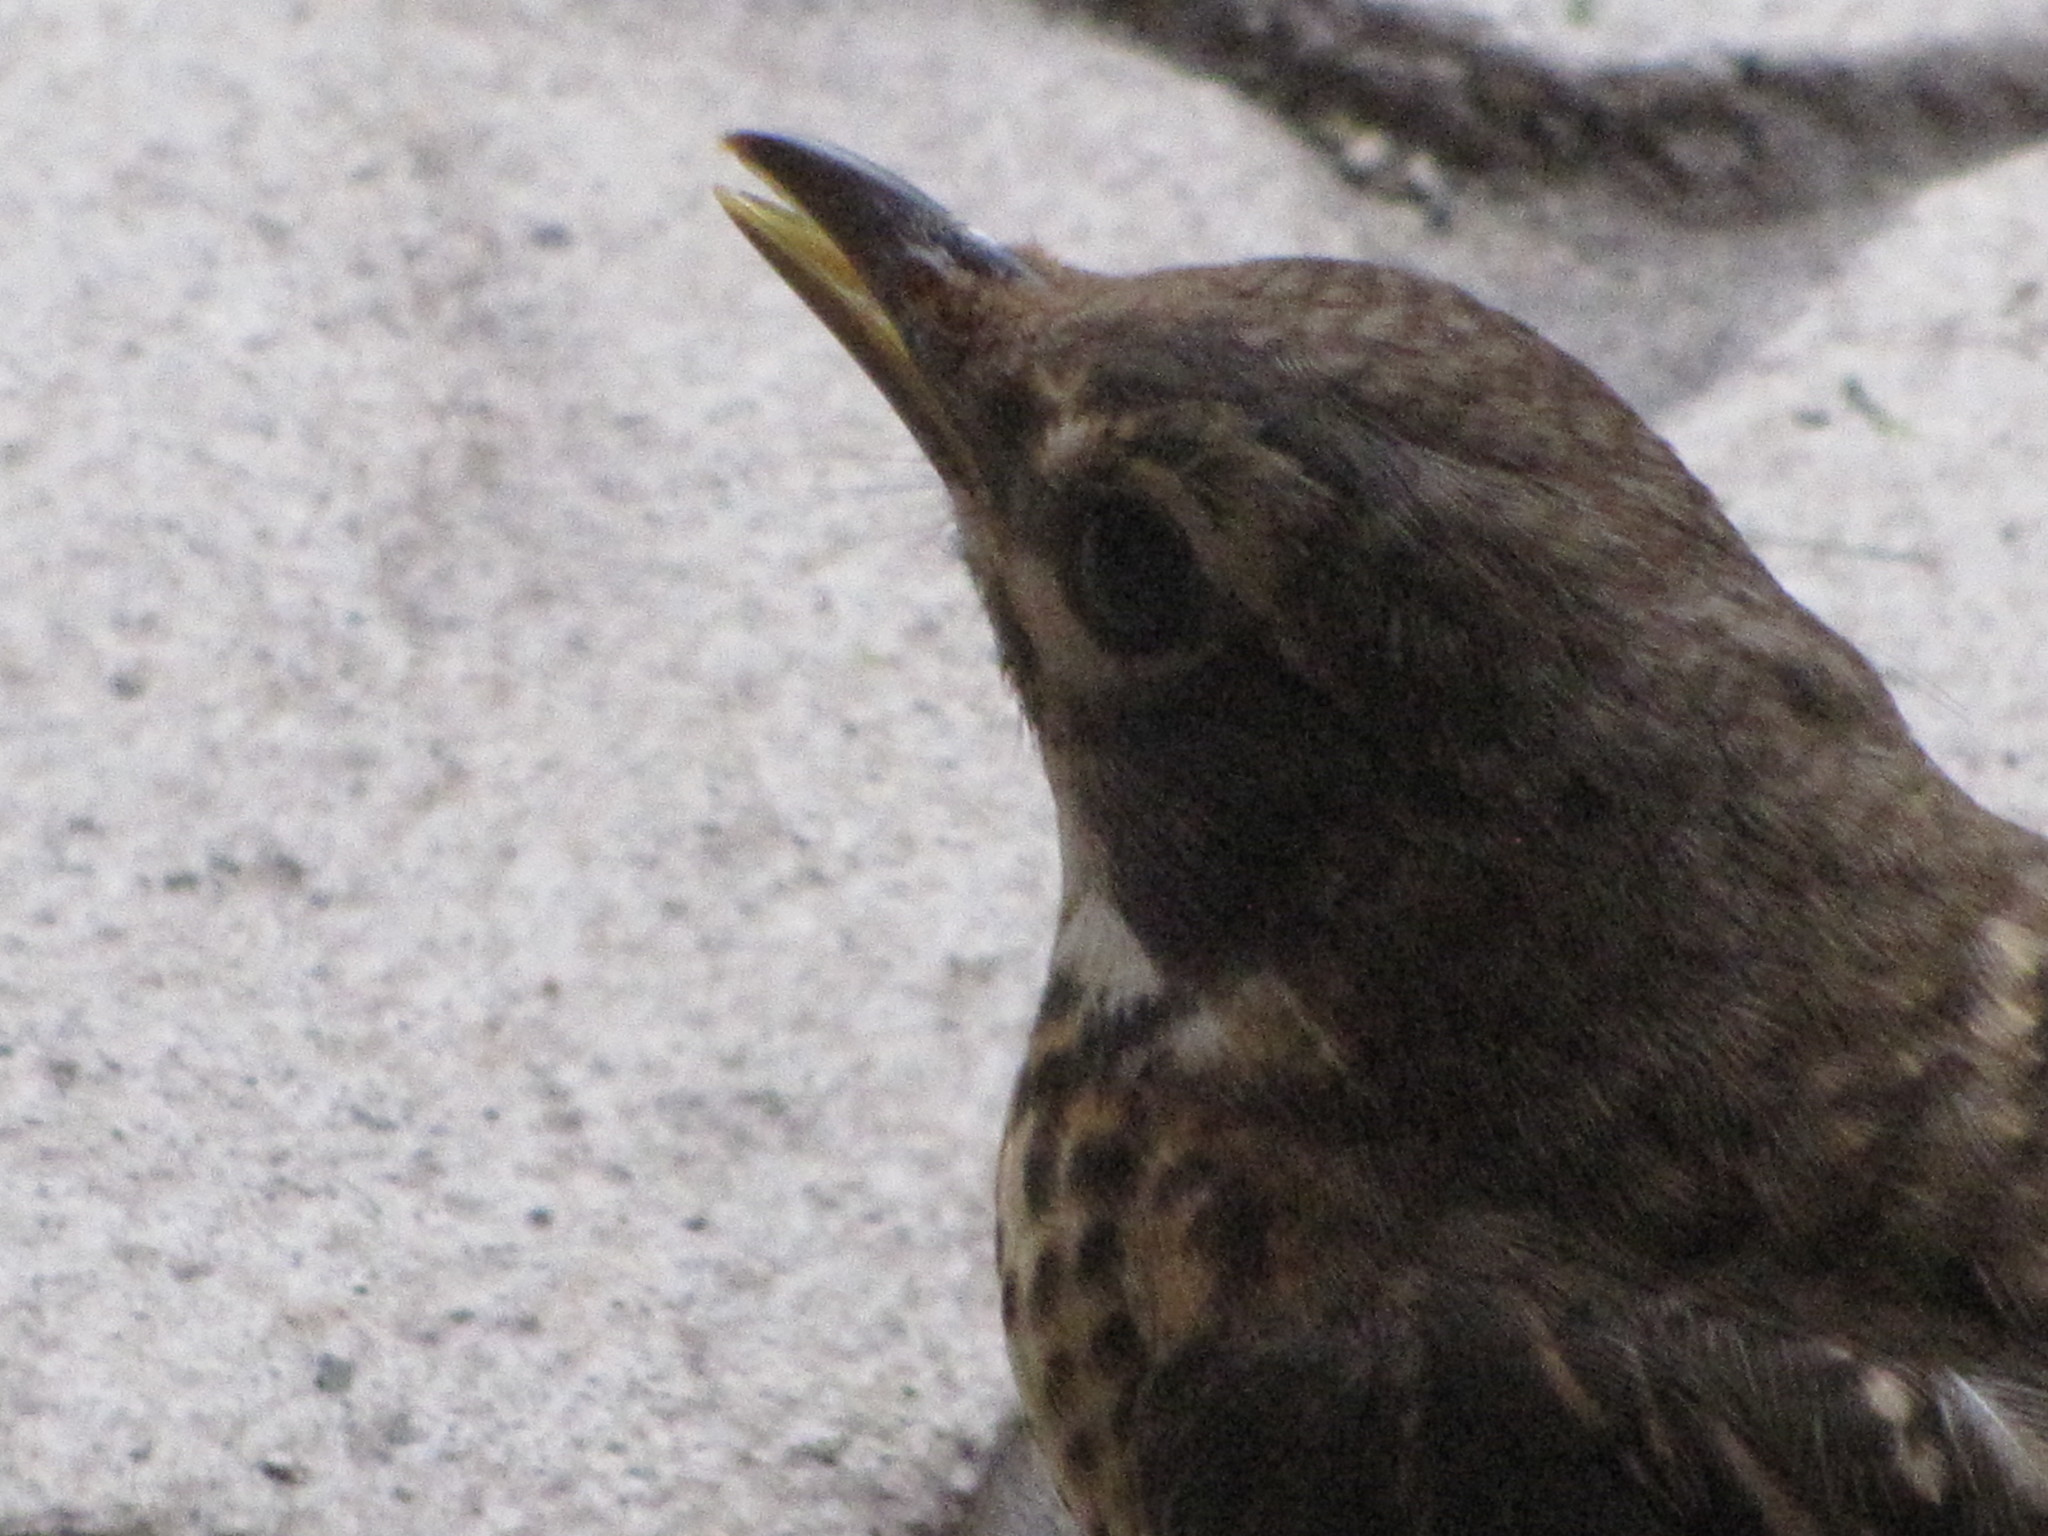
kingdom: Animalia
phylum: Chordata
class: Aves
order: Passeriformes
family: Turdidae
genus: Turdus
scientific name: Turdus migratorius
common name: American robin
